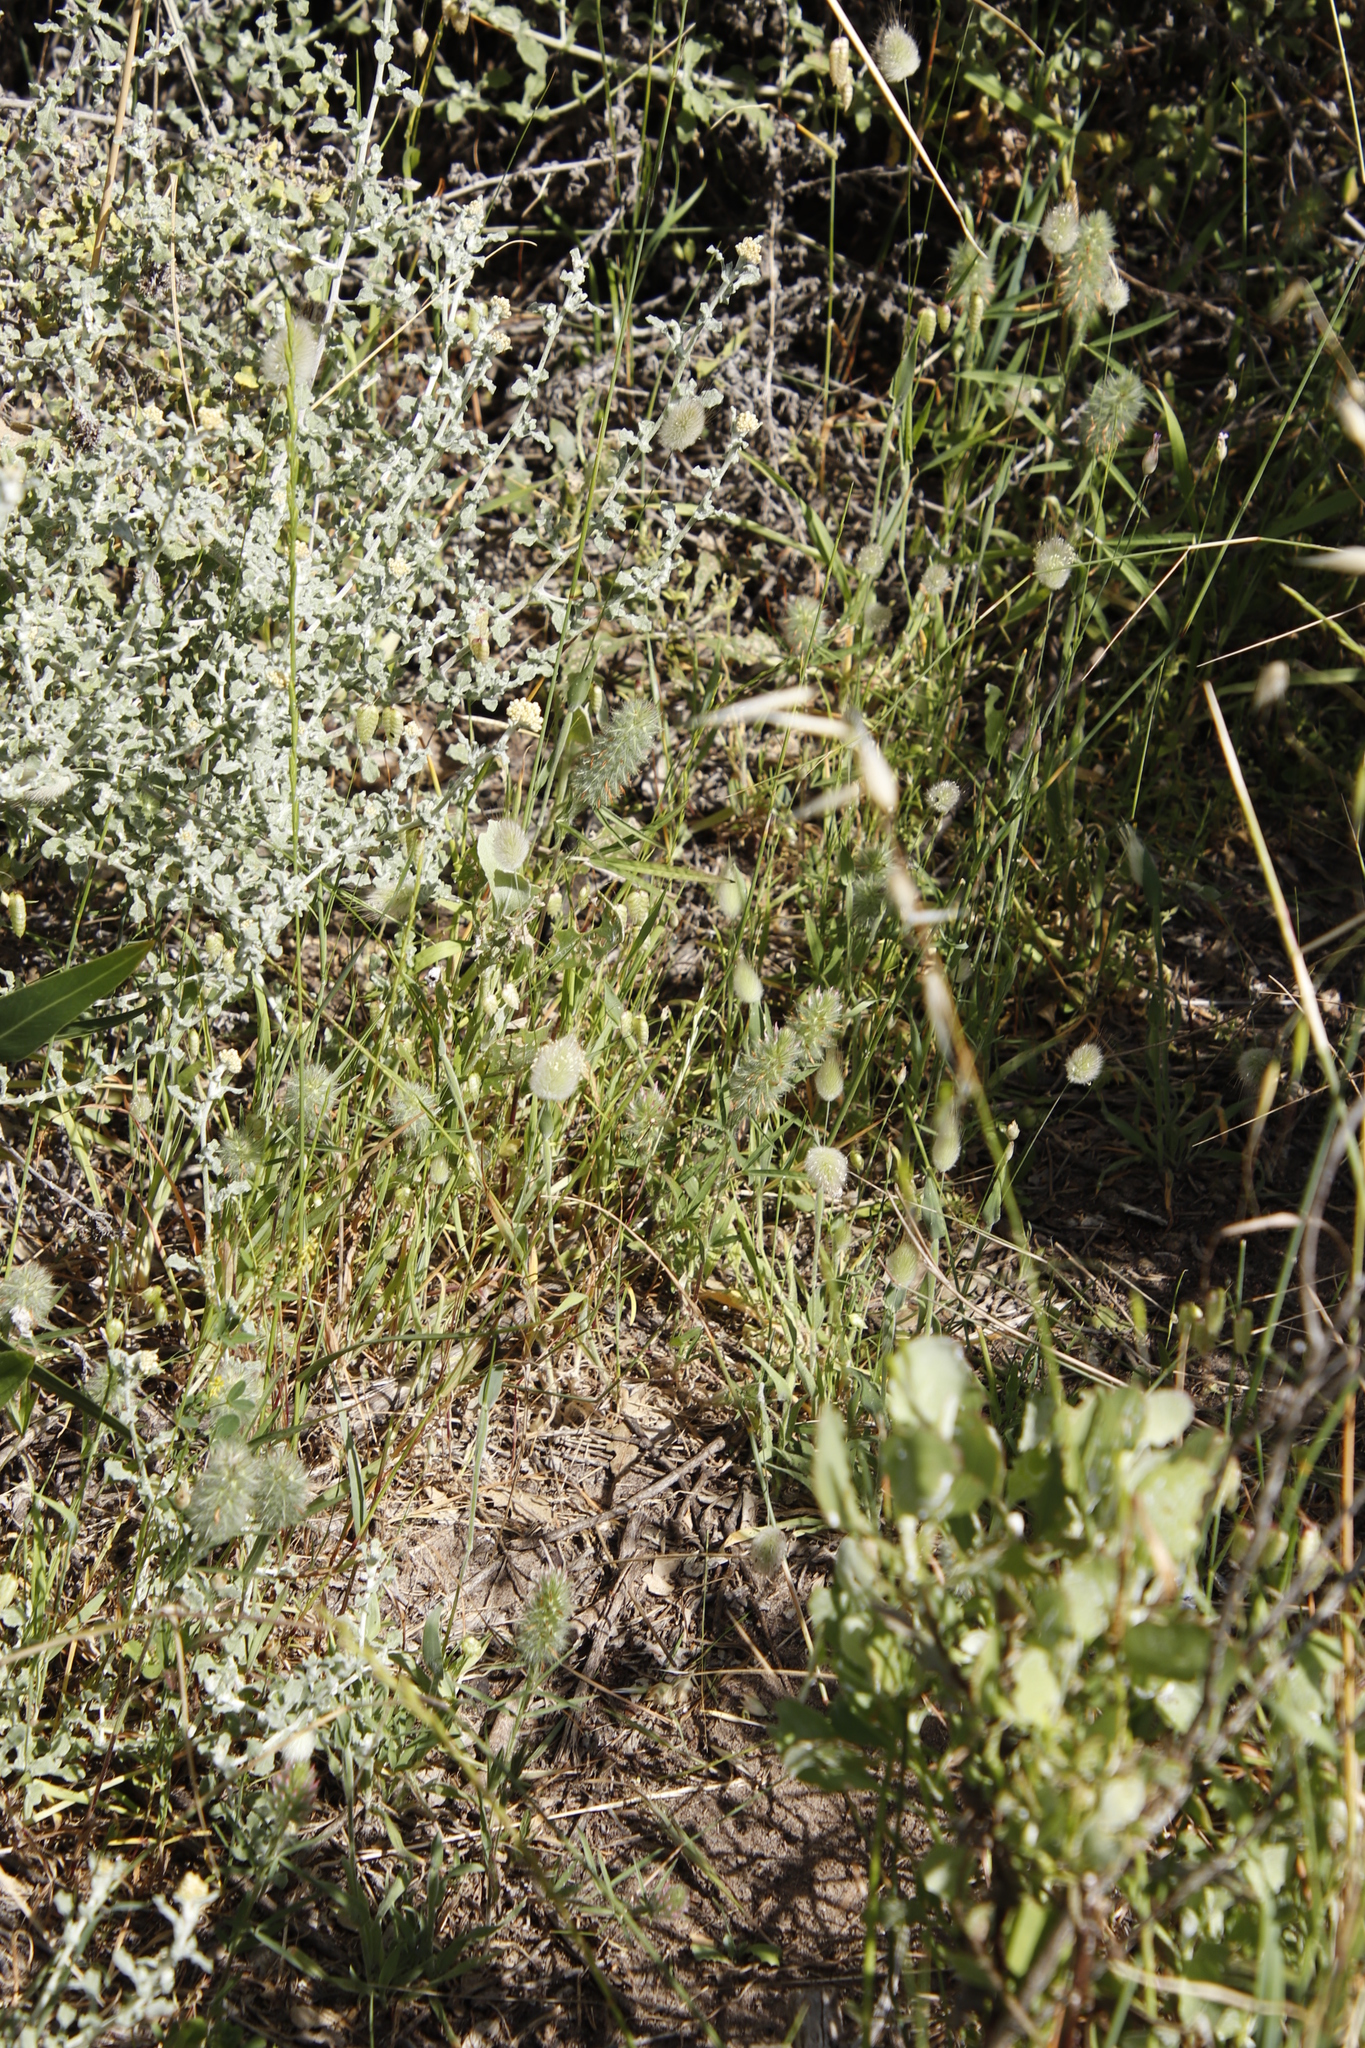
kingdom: Plantae
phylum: Tracheophyta
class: Magnoliopsida
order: Fabales
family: Fabaceae
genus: Trifolium
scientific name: Trifolium angustifolium
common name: Narrow clover
